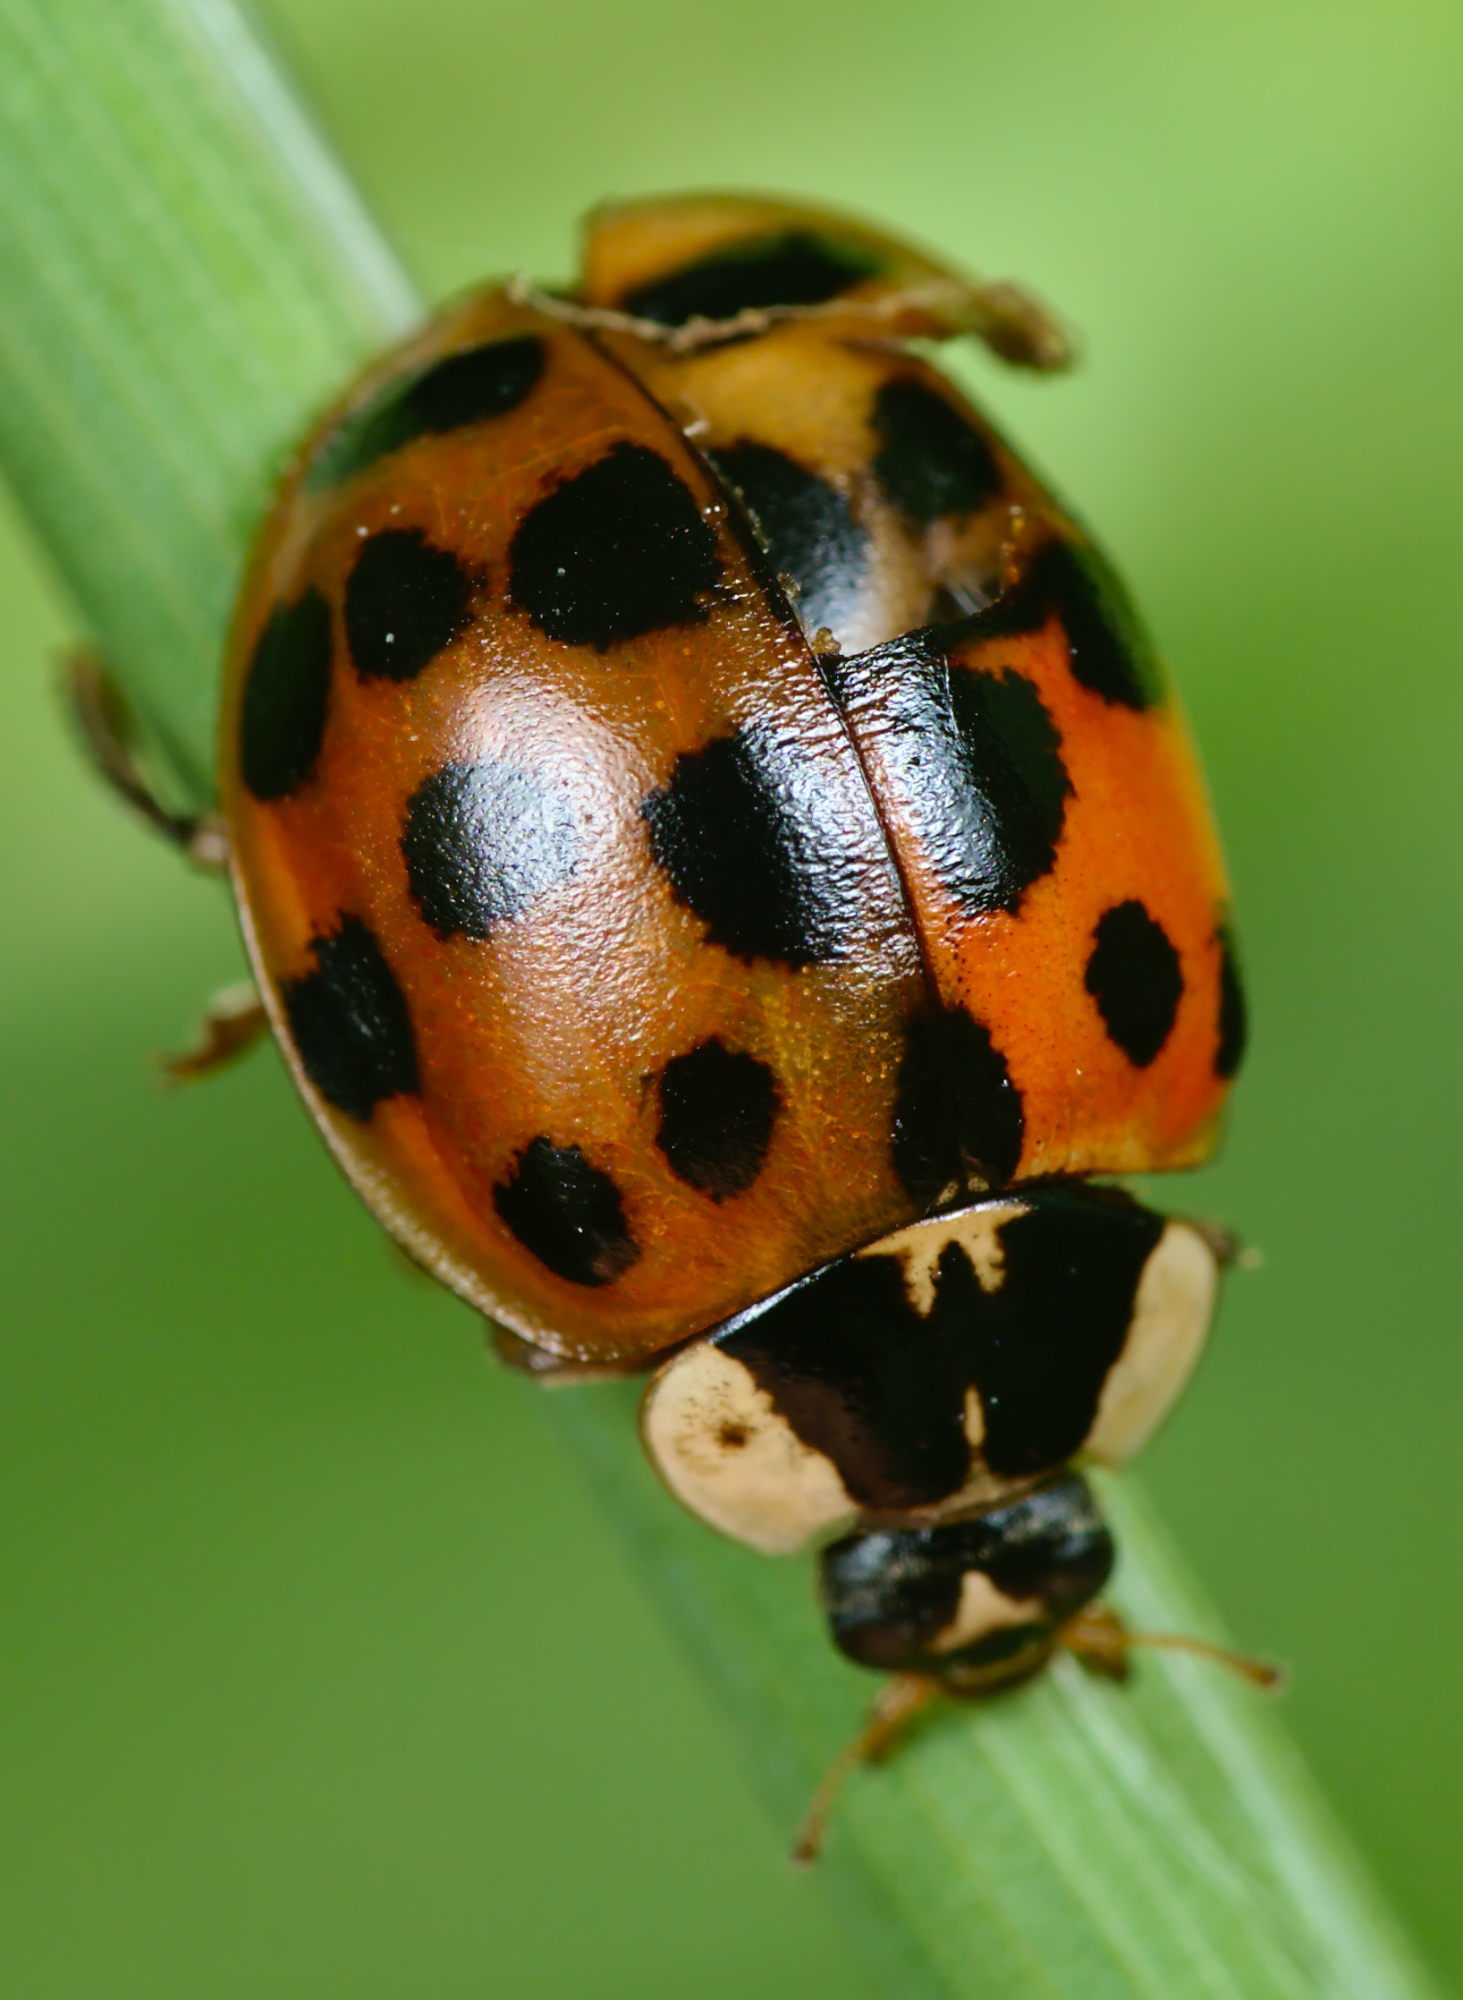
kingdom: Animalia
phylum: Arthropoda
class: Insecta
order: Coleoptera
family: Coccinellidae
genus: Harmonia
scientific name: Harmonia axyridis
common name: Harlequin ladybird
